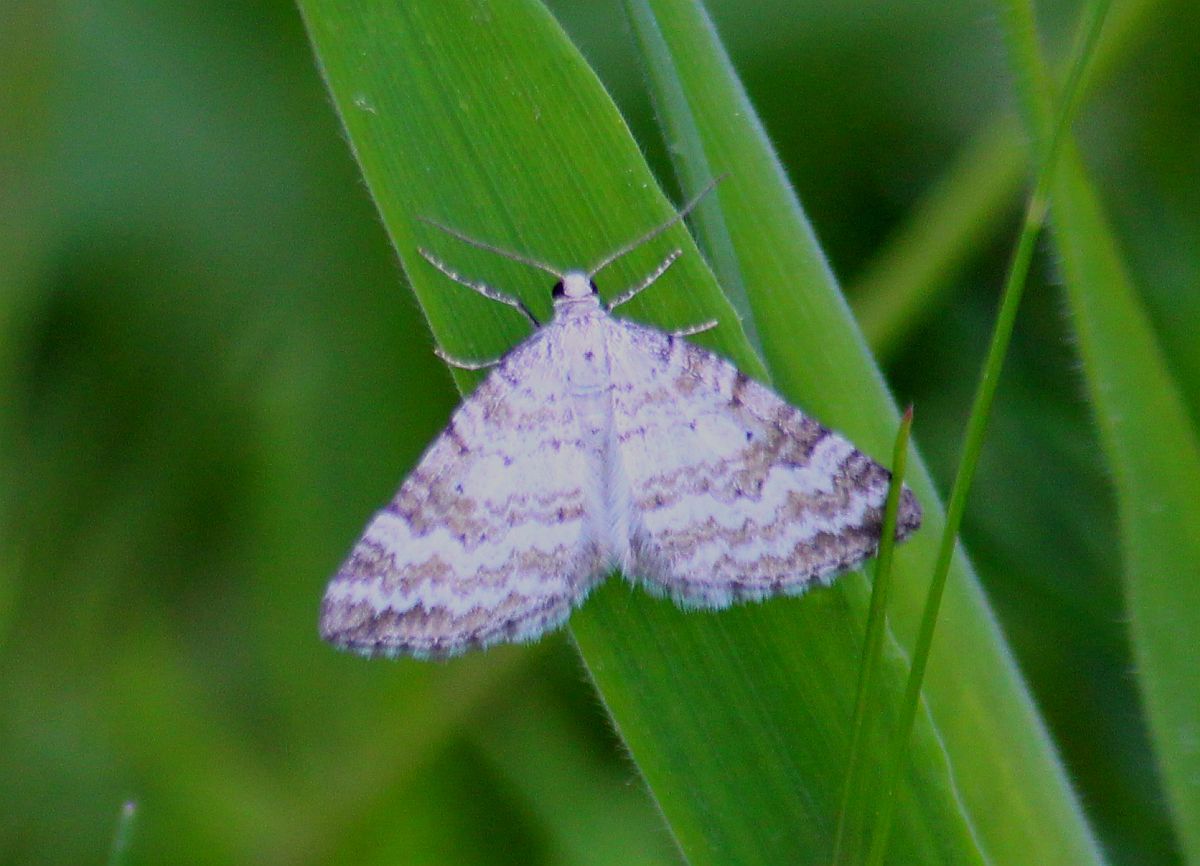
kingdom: Animalia
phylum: Arthropoda
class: Insecta
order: Lepidoptera
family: Geometridae
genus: Perizoma
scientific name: Perizoma albulata
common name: Grass rivulet
